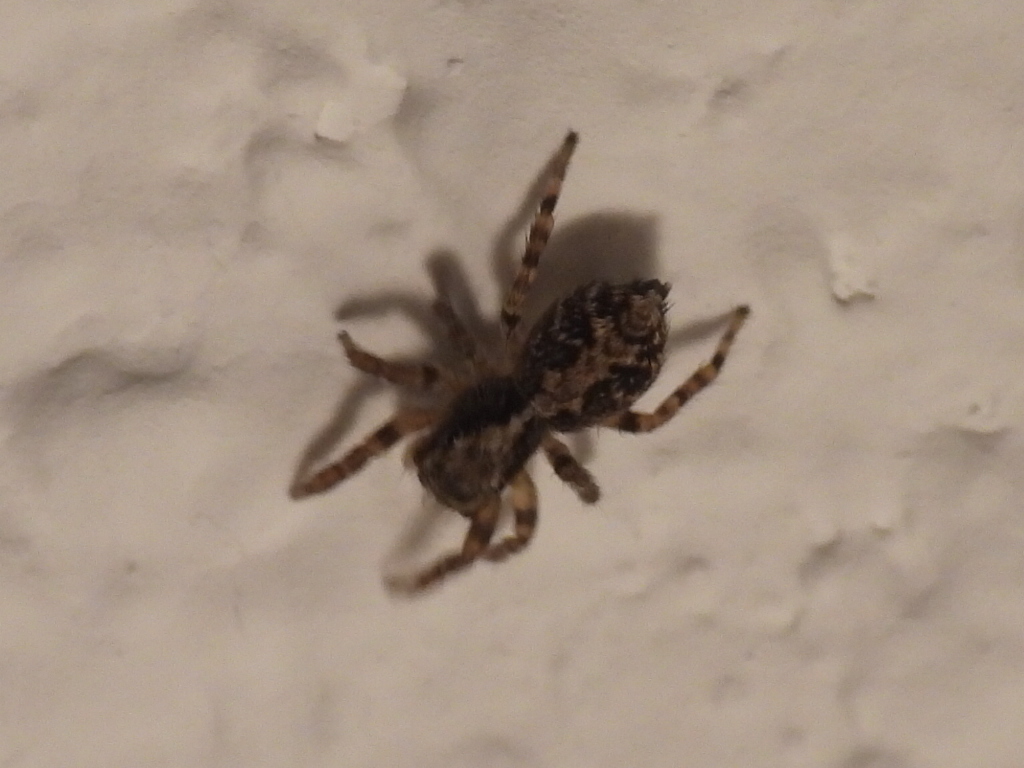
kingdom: Animalia
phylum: Arthropoda
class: Arachnida
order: Araneae
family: Salticidae
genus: Pseudeuophrys
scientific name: Pseudeuophrys lanigera
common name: Jumping spider
